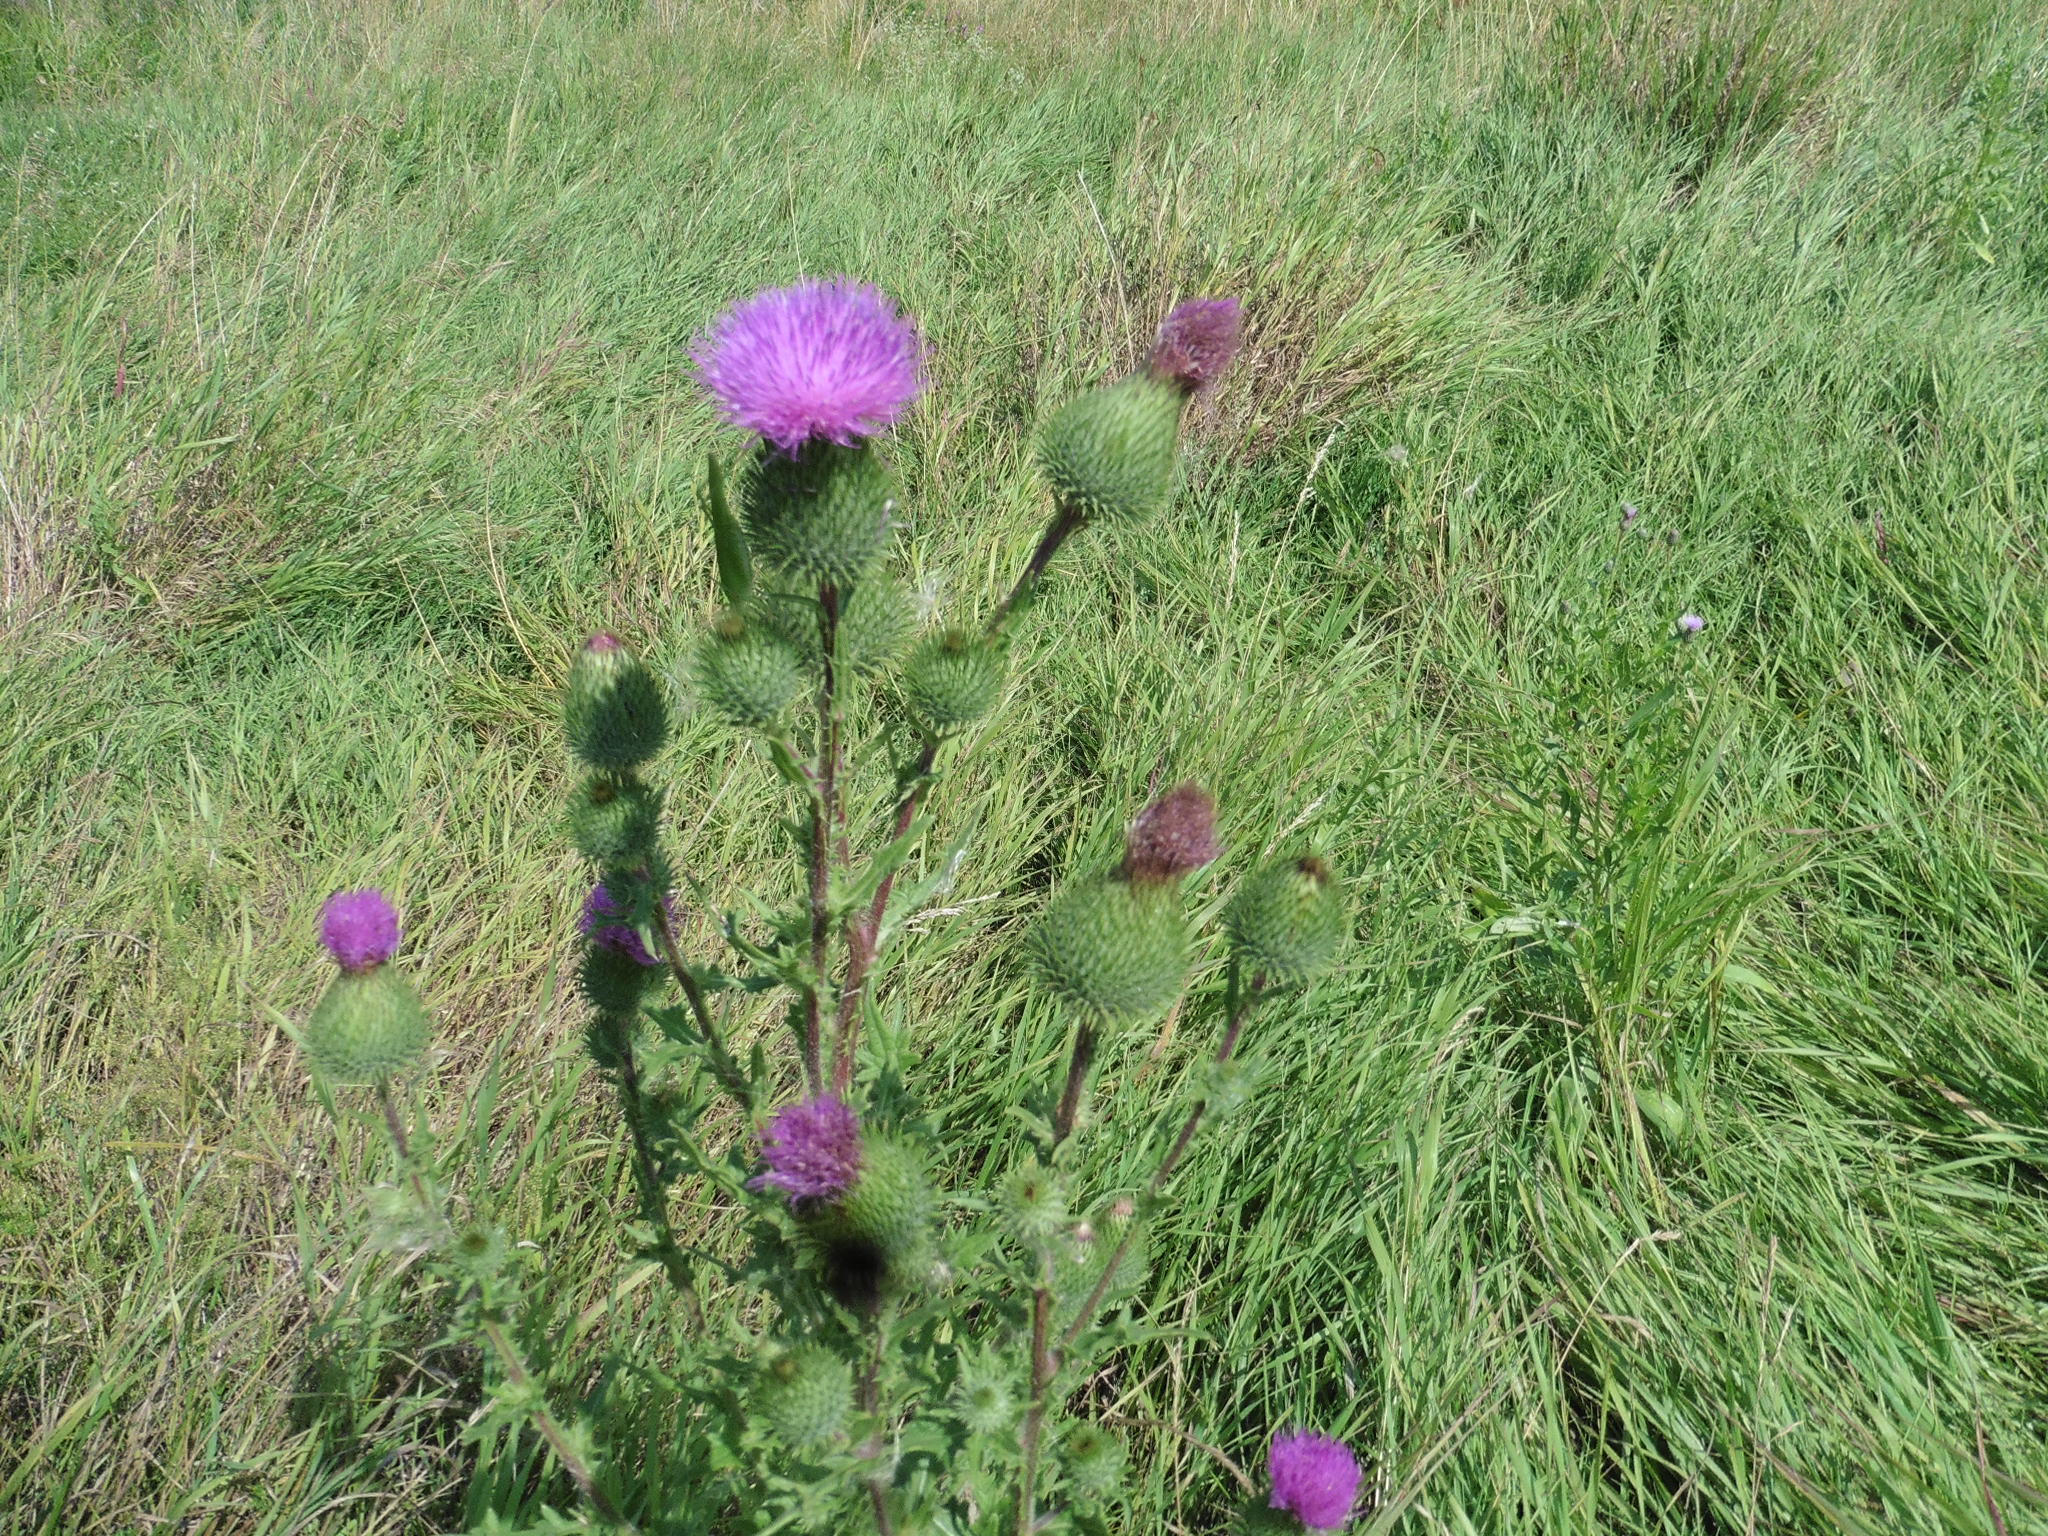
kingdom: Plantae
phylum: Tracheophyta
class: Magnoliopsida
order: Asterales
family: Asteraceae
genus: Cirsium
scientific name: Cirsium vulgare
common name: Bull thistle
